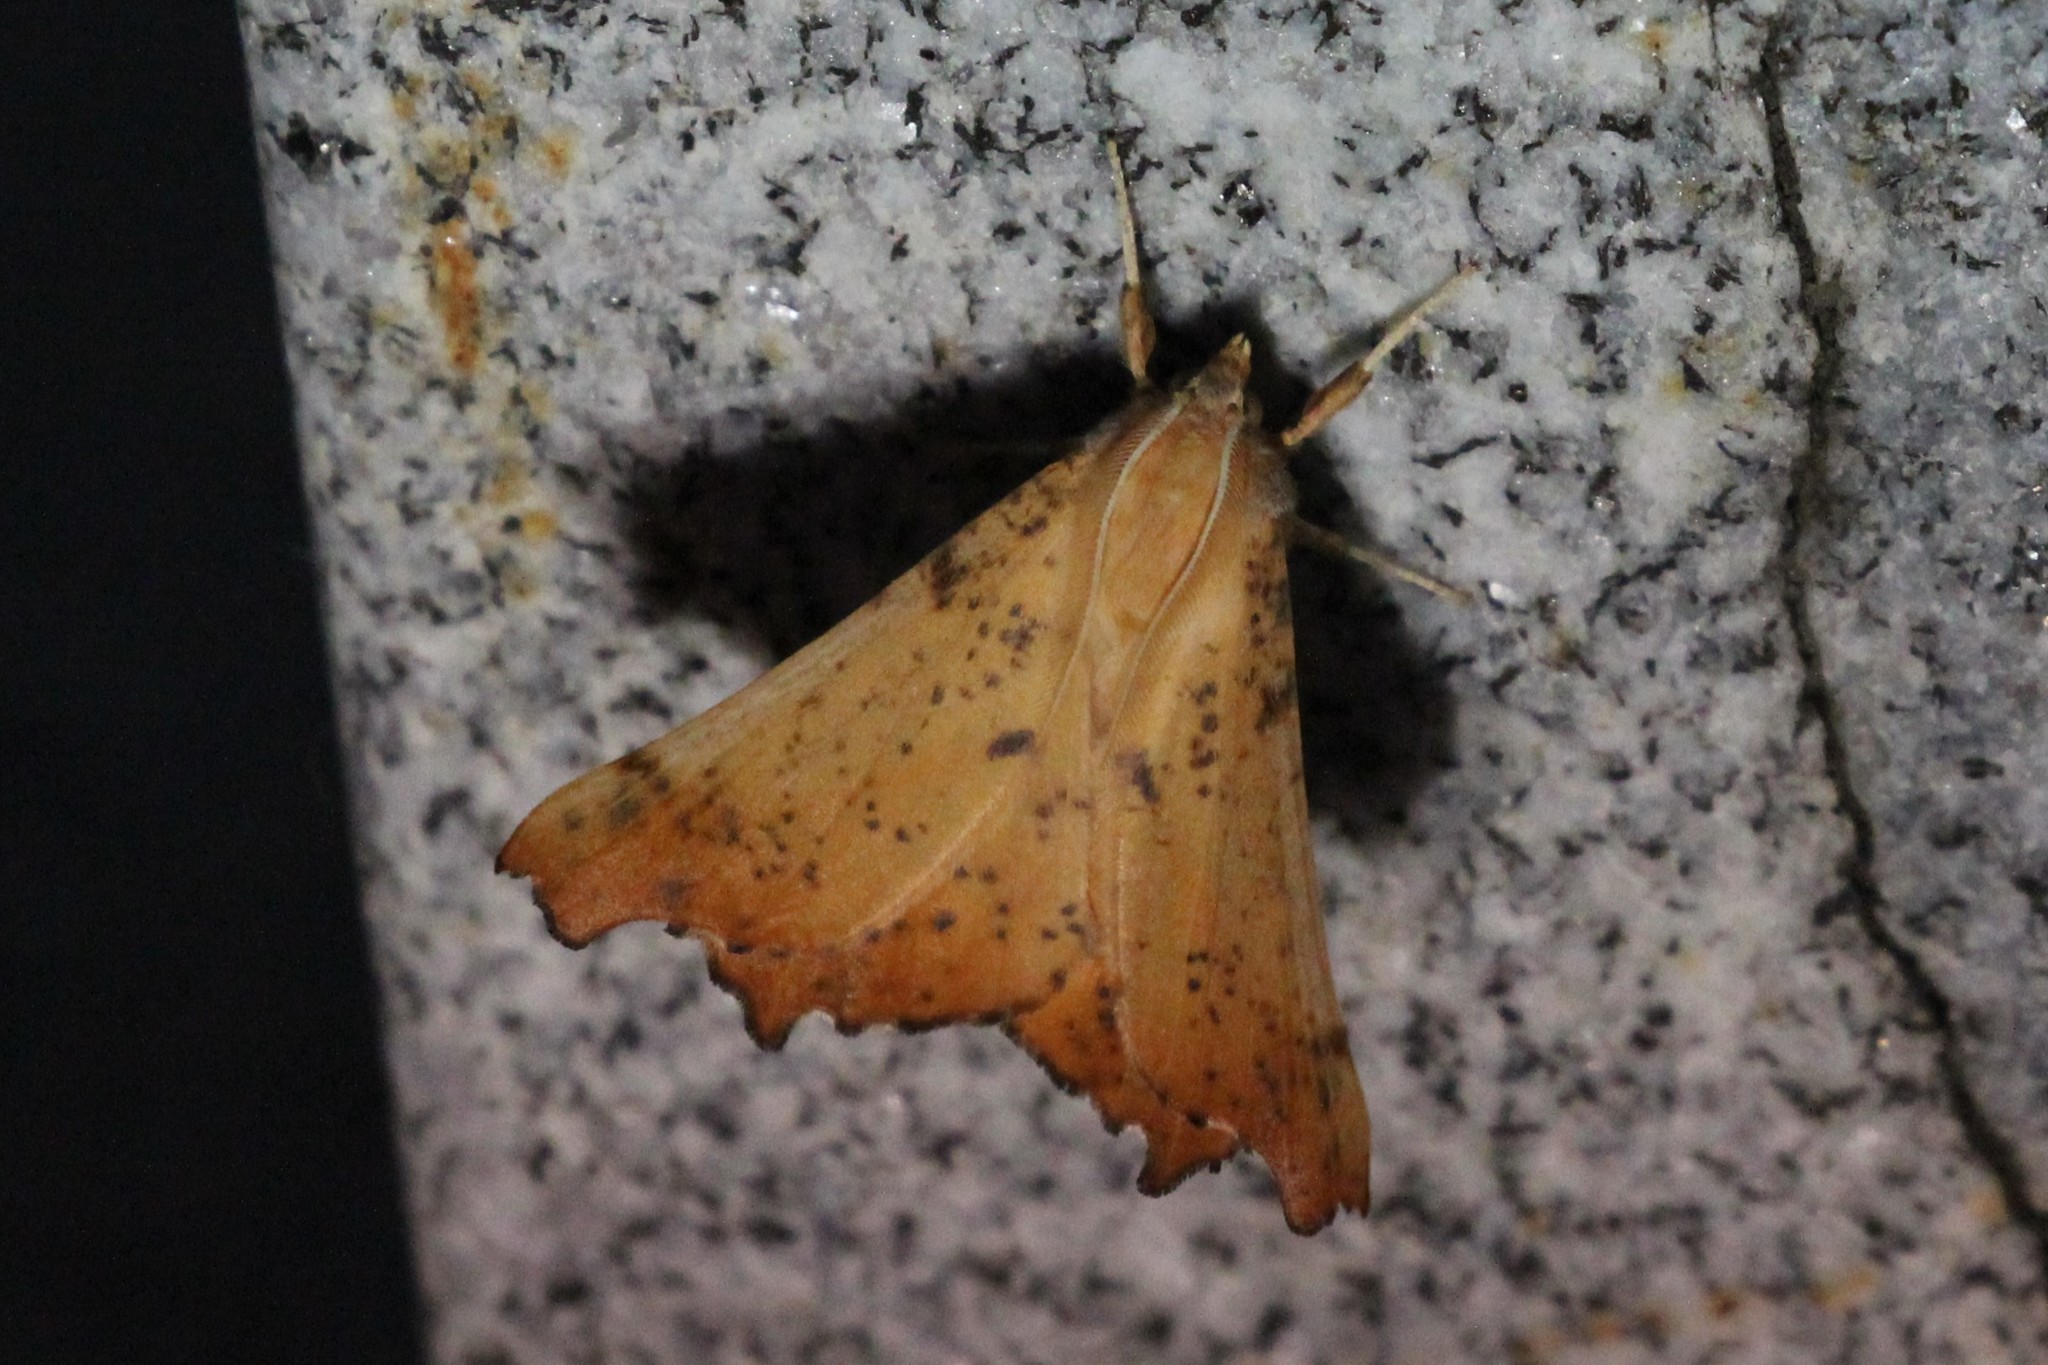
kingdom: Animalia
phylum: Arthropoda
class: Insecta
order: Lepidoptera
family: Geometridae
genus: Ennomos
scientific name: Ennomos magnaria
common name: Maple spanworm
